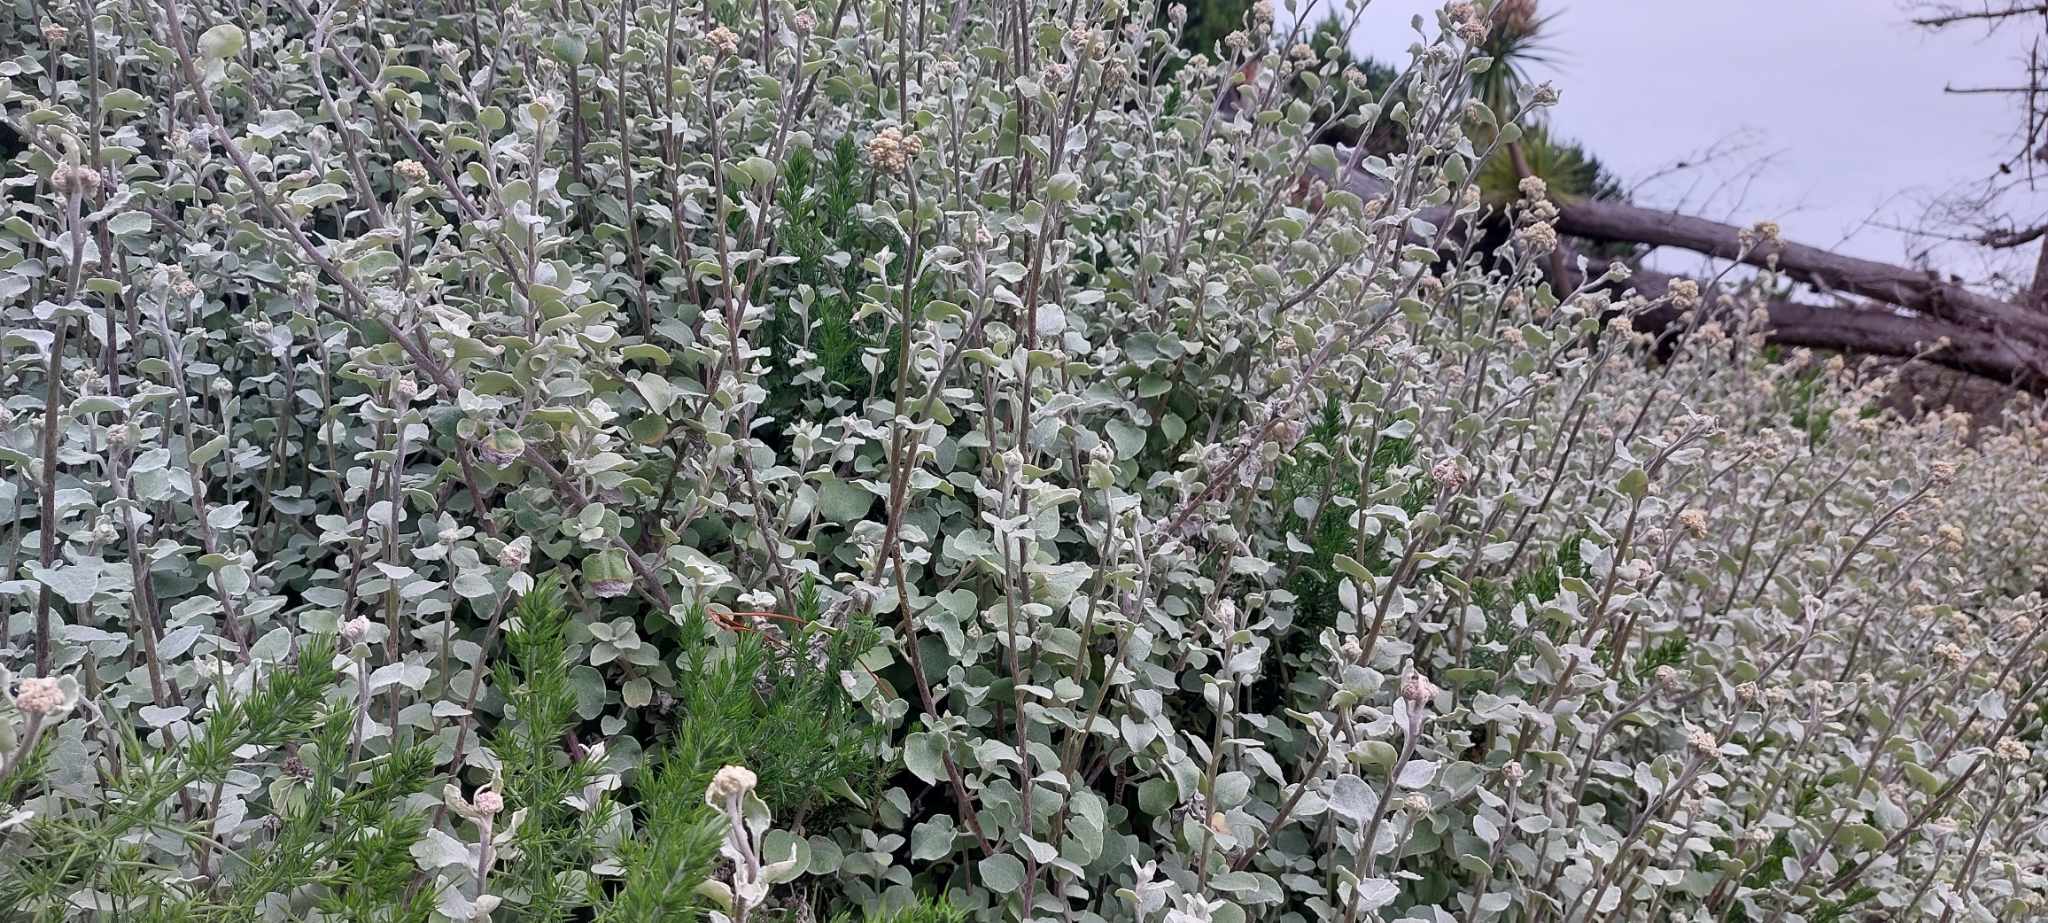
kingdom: Plantae
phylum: Tracheophyta
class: Magnoliopsida
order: Asterales
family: Asteraceae
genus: Helichrysum
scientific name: Helichrysum petiolare
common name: Licorice-plant
